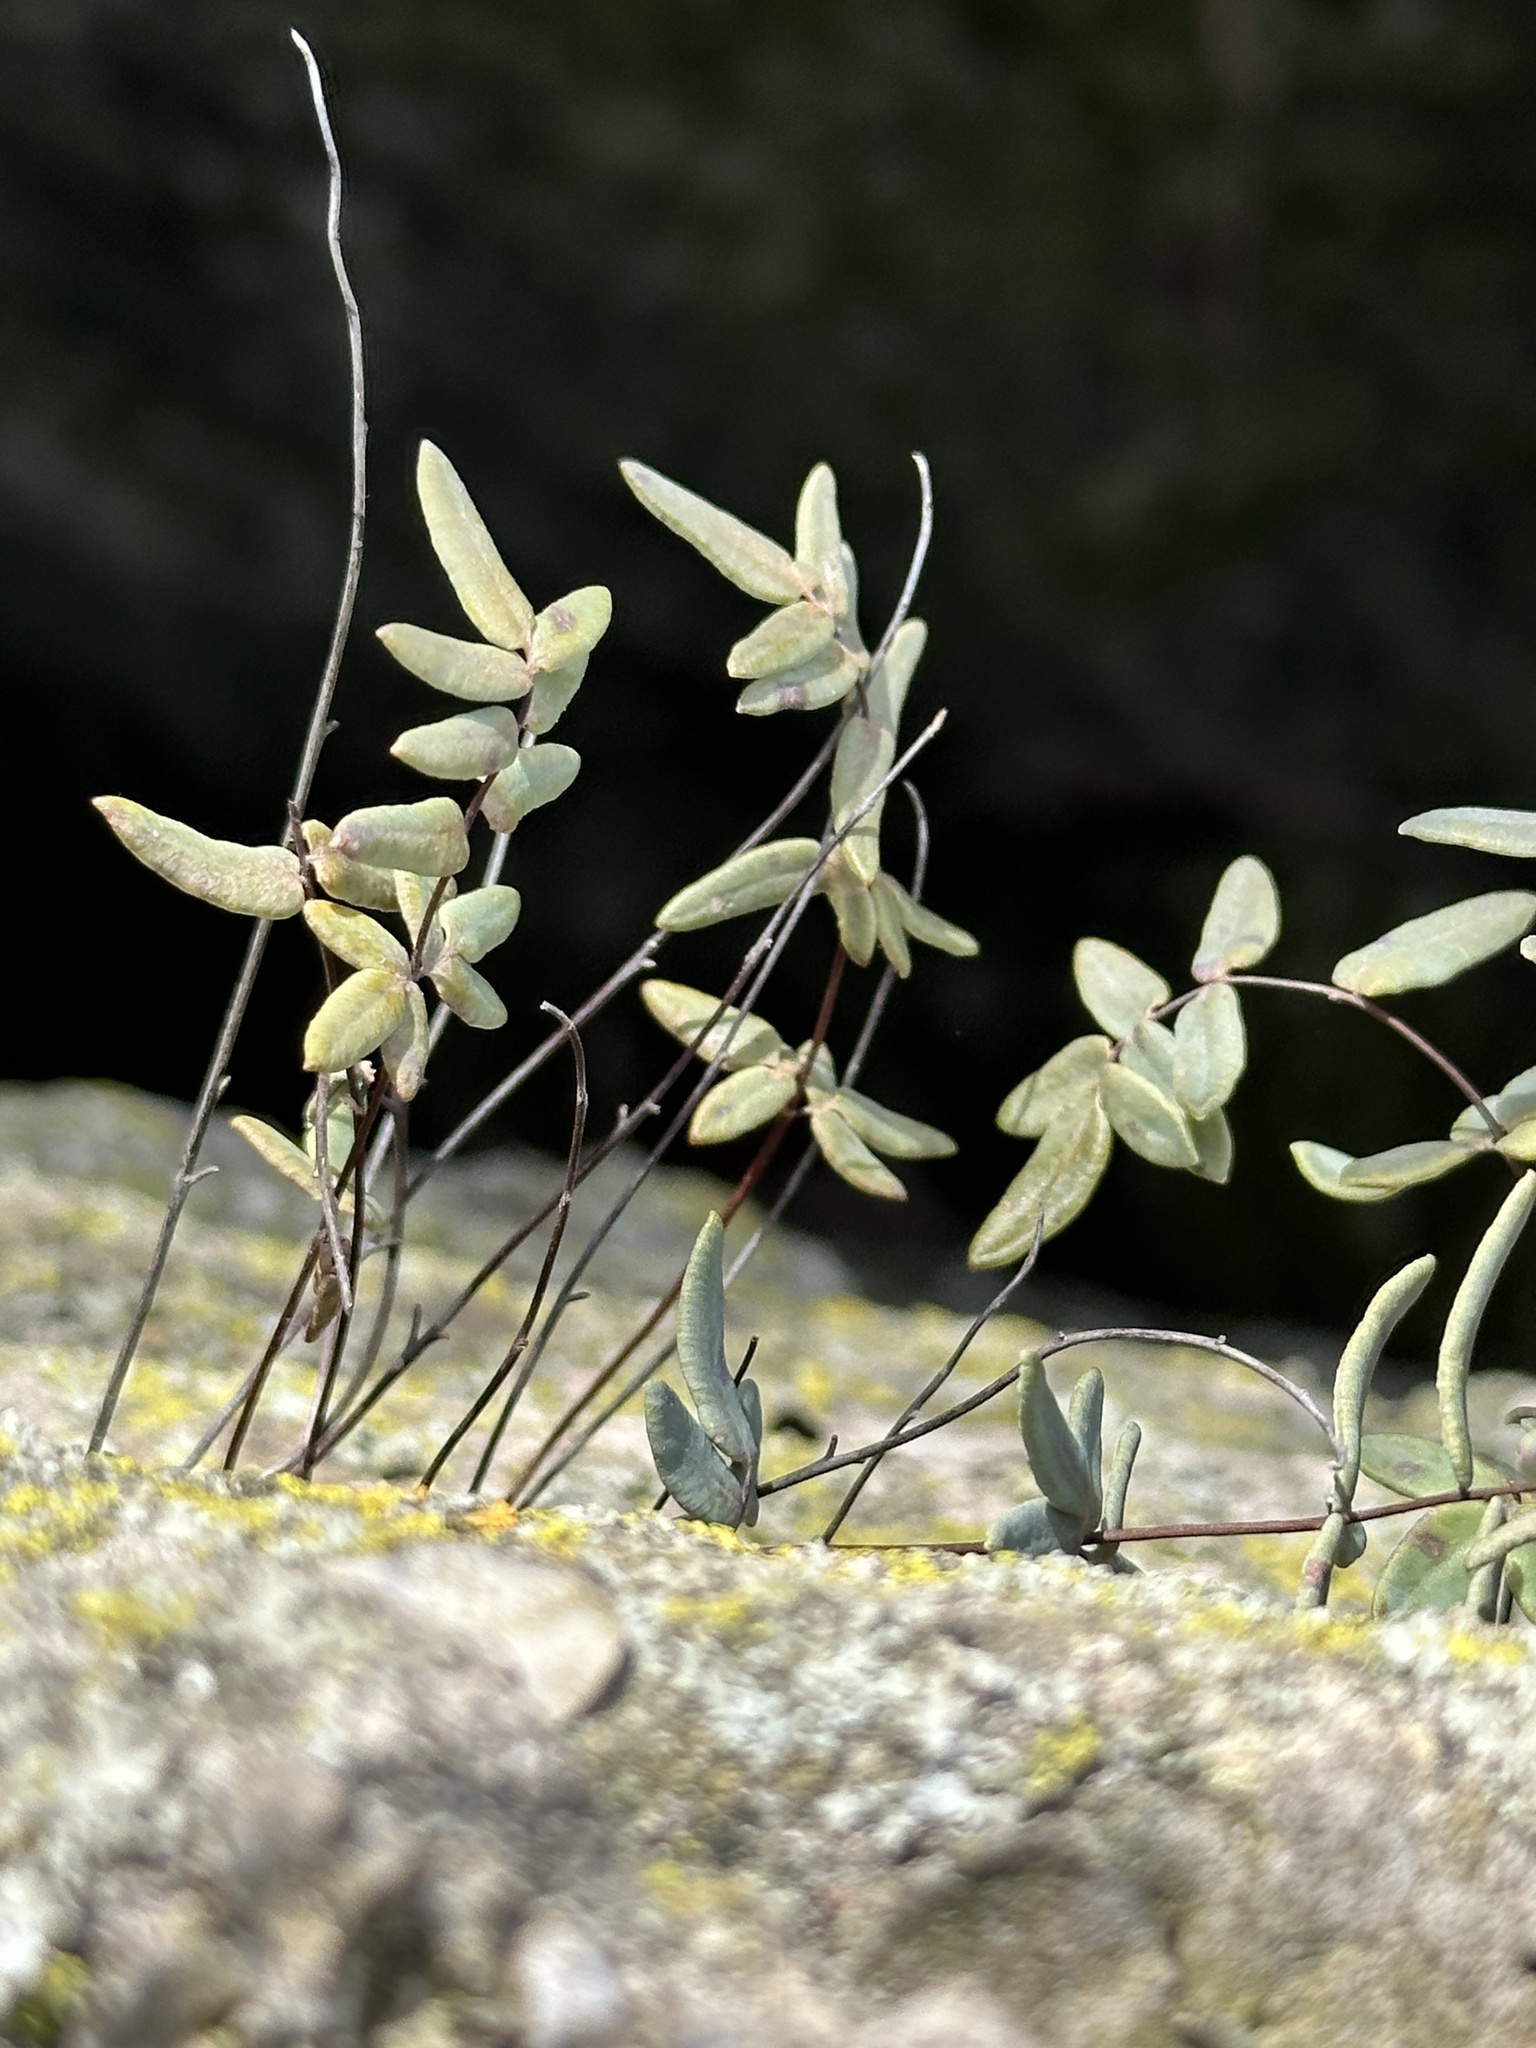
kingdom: Plantae
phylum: Tracheophyta
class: Polypodiopsida
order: Polypodiales
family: Pteridaceae
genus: Pellaea
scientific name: Pellaea glabella
